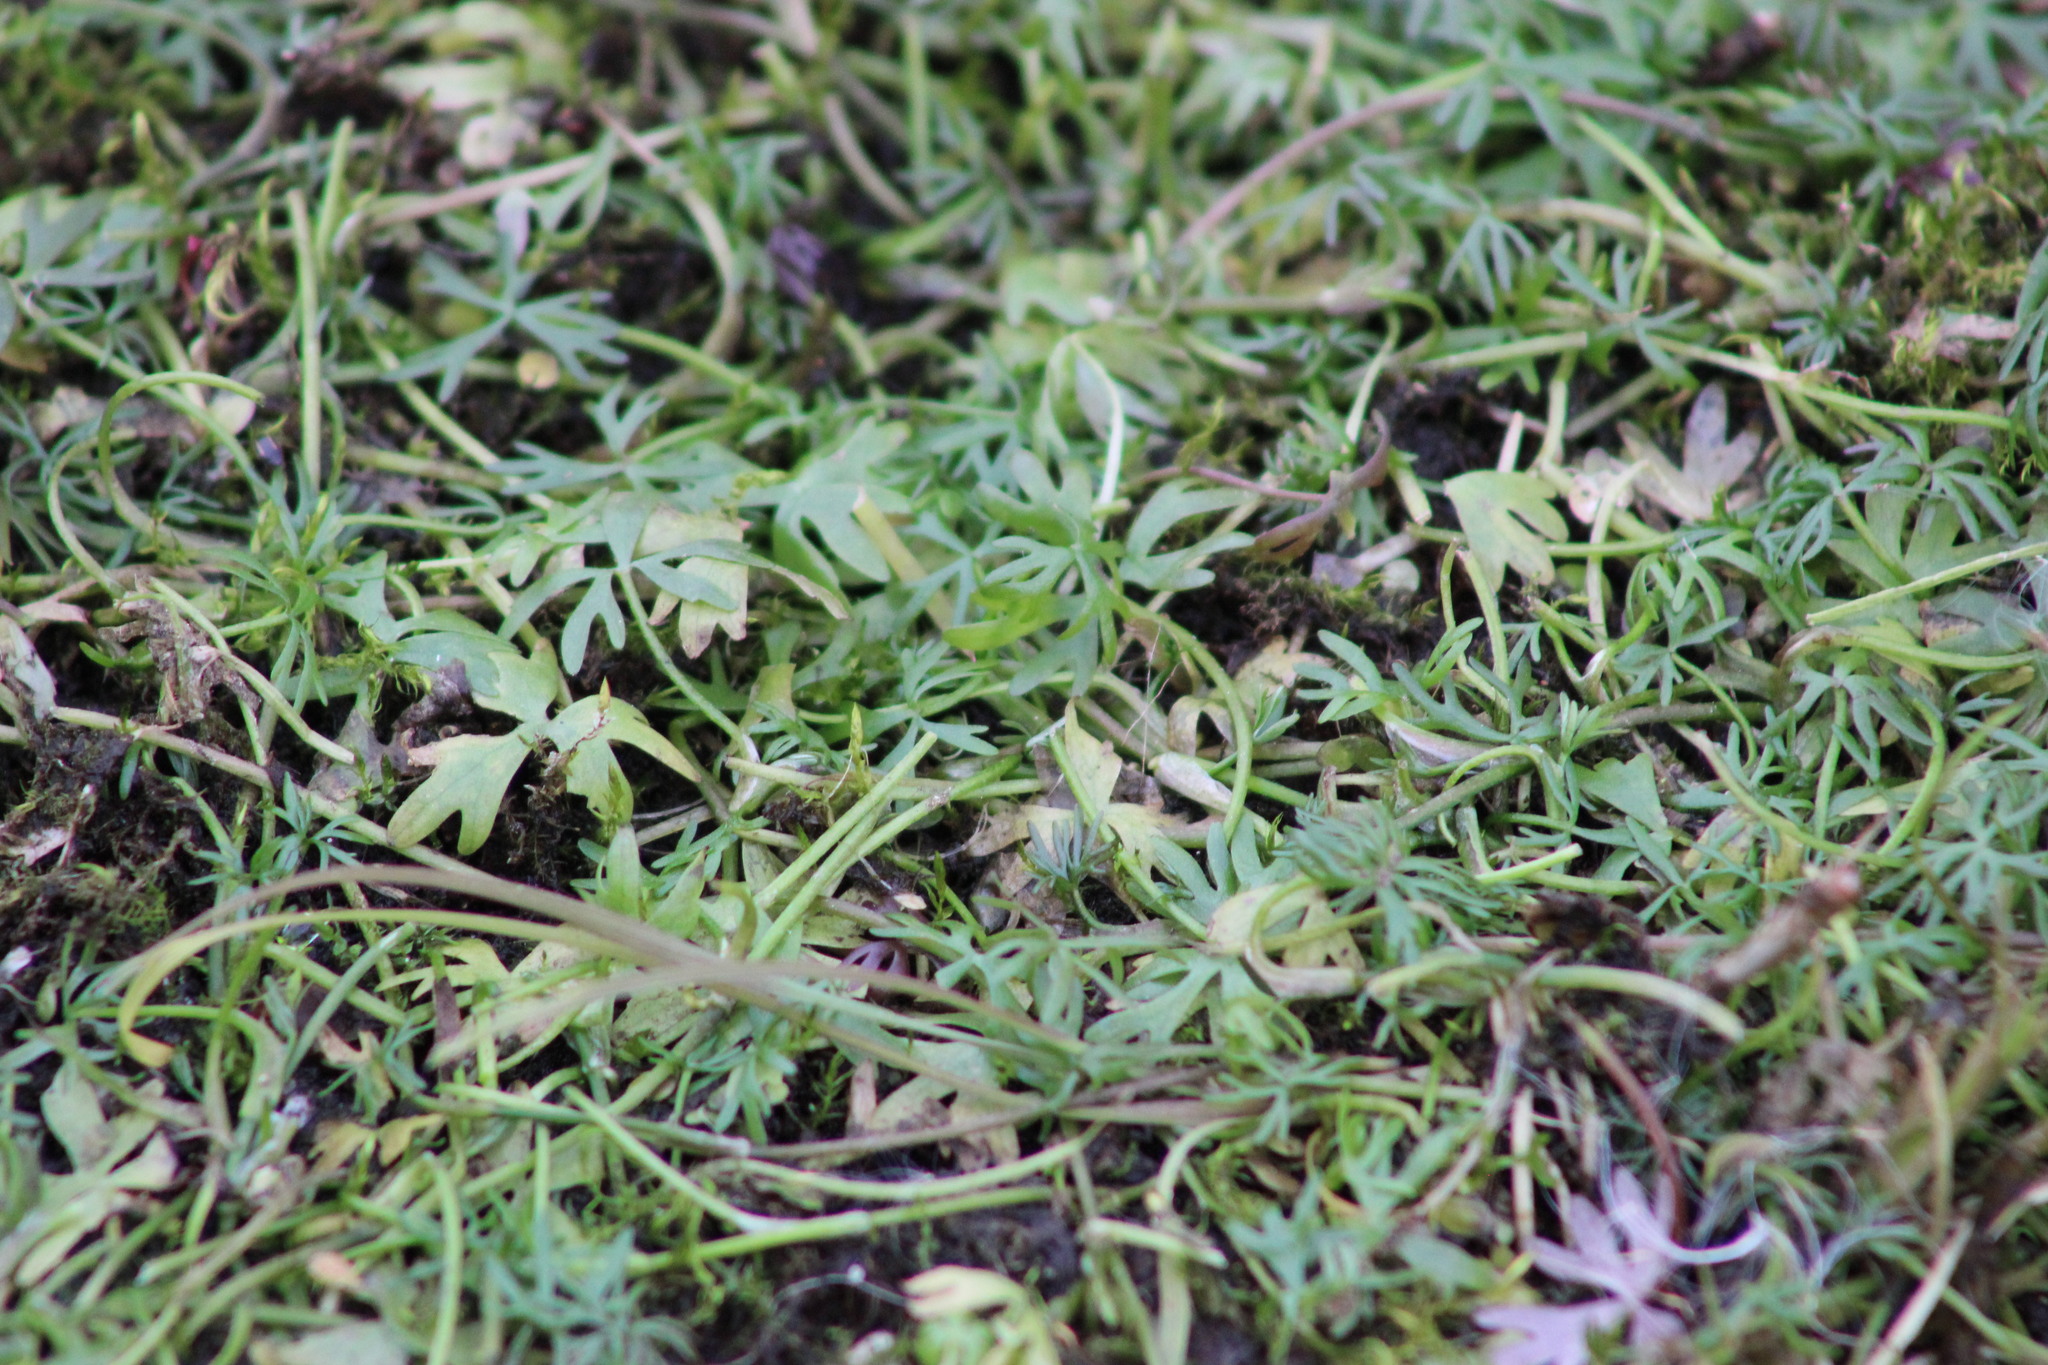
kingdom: Plantae
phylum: Tracheophyta
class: Magnoliopsida
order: Ranunculales
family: Ranunculaceae
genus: Ranunculus
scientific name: Ranunculus gmelinii
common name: Gmelin's buttercup
